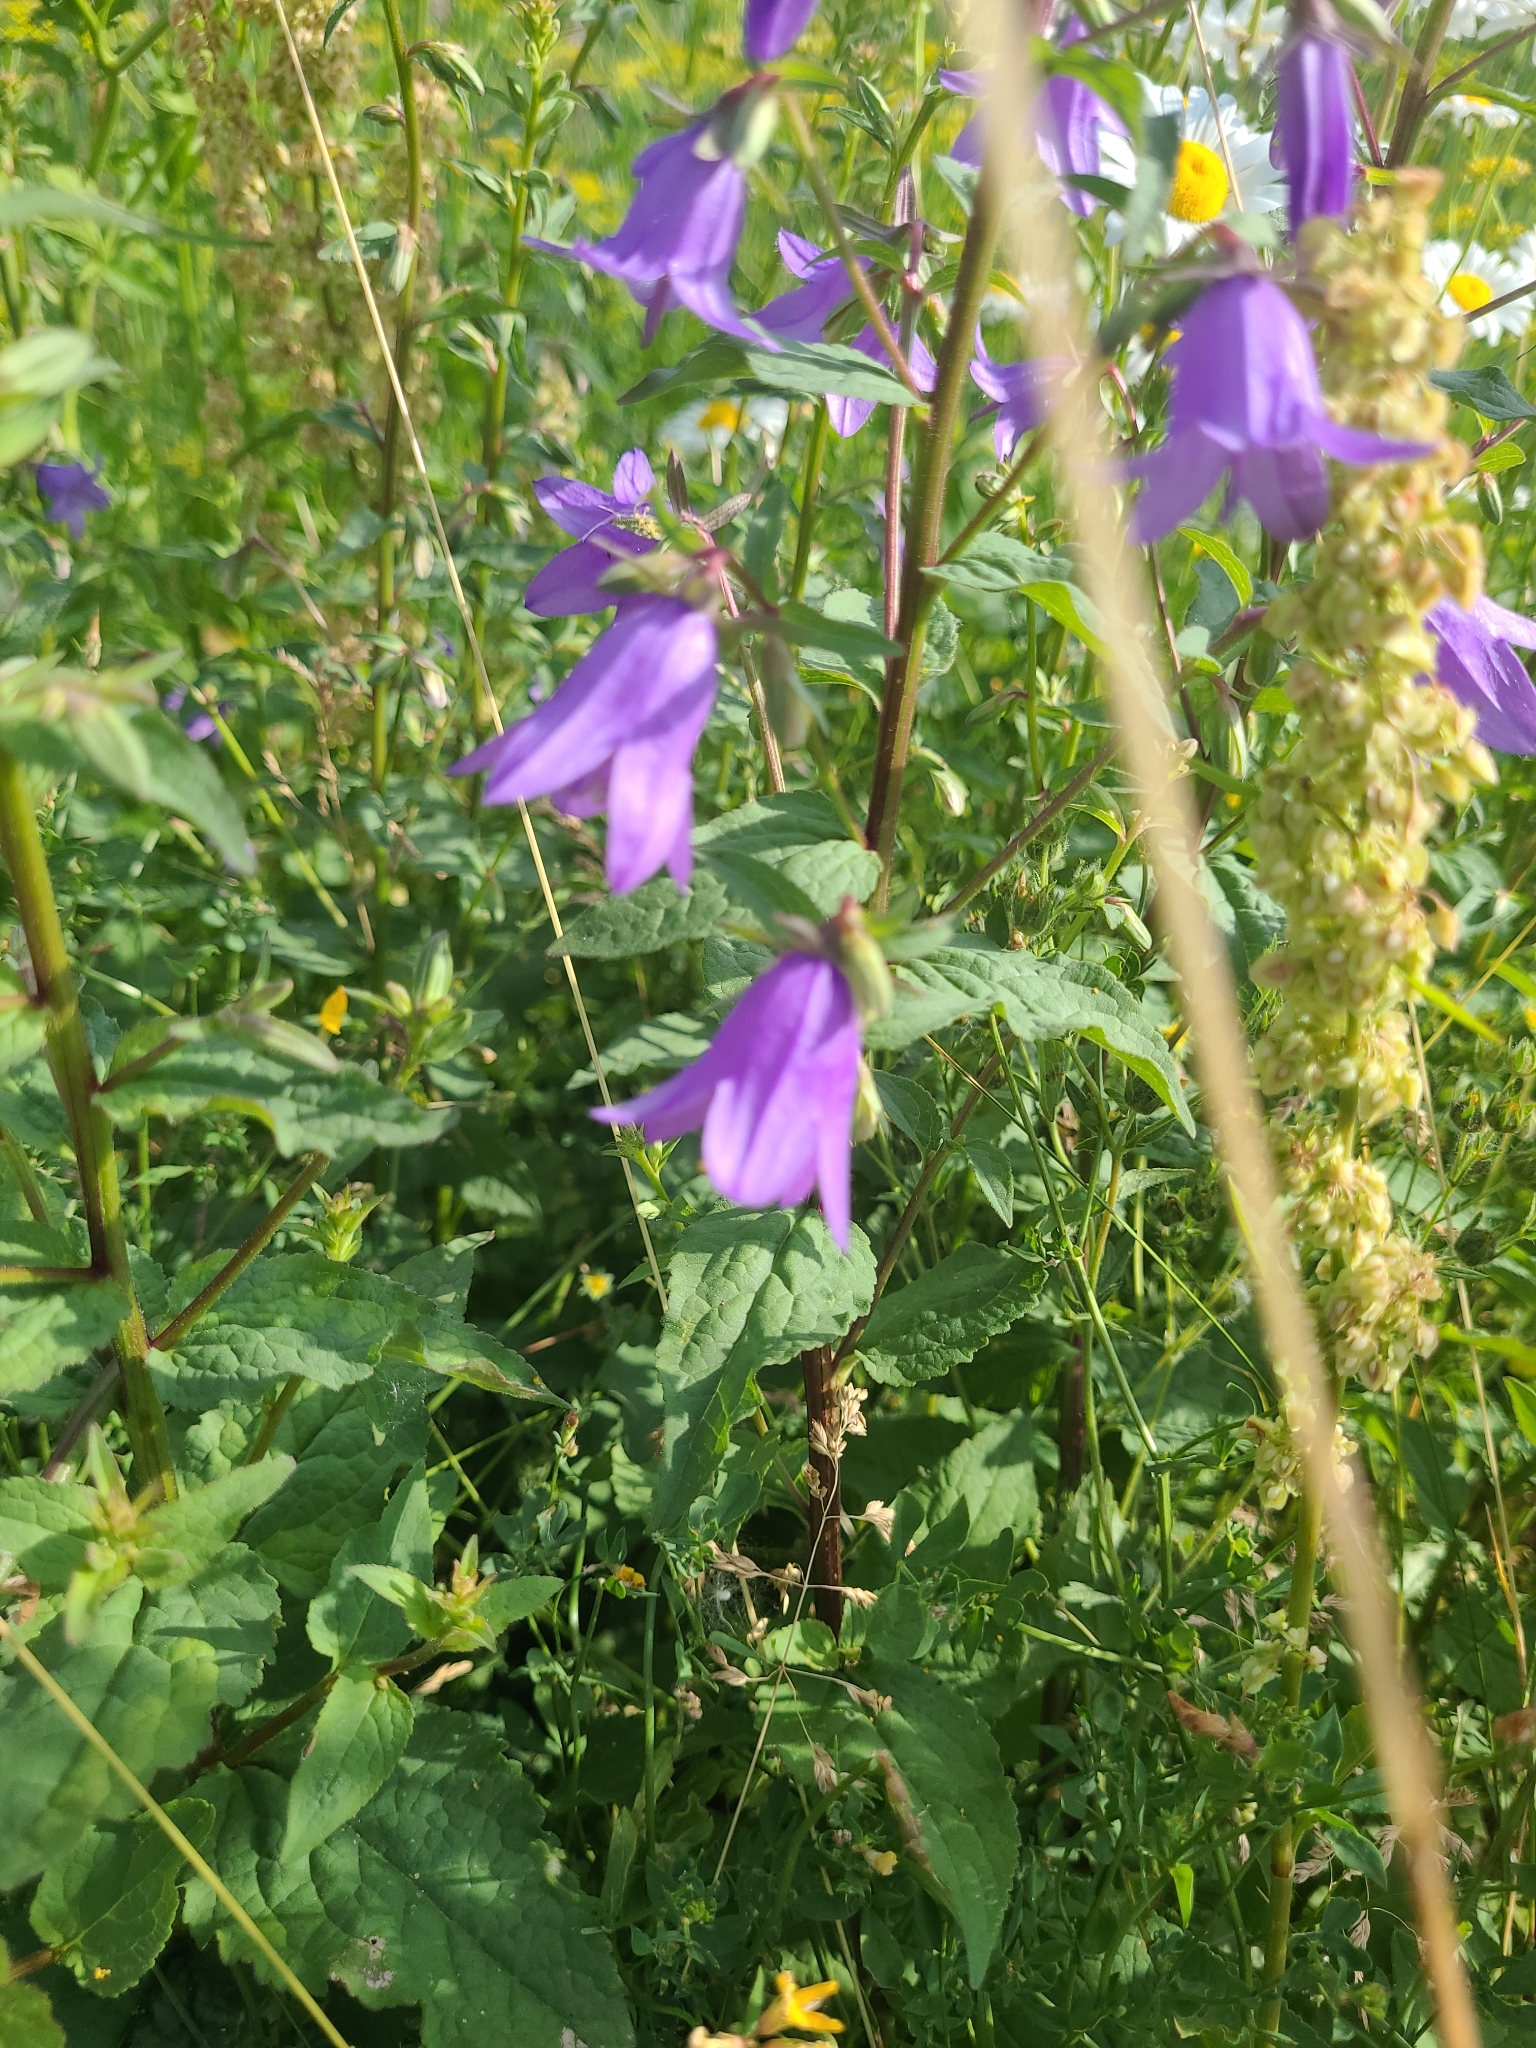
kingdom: Plantae
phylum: Tracheophyta
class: Magnoliopsida
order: Asterales
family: Campanulaceae
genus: Campanula
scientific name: Campanula rapunculoides
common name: Creeping bellflower
